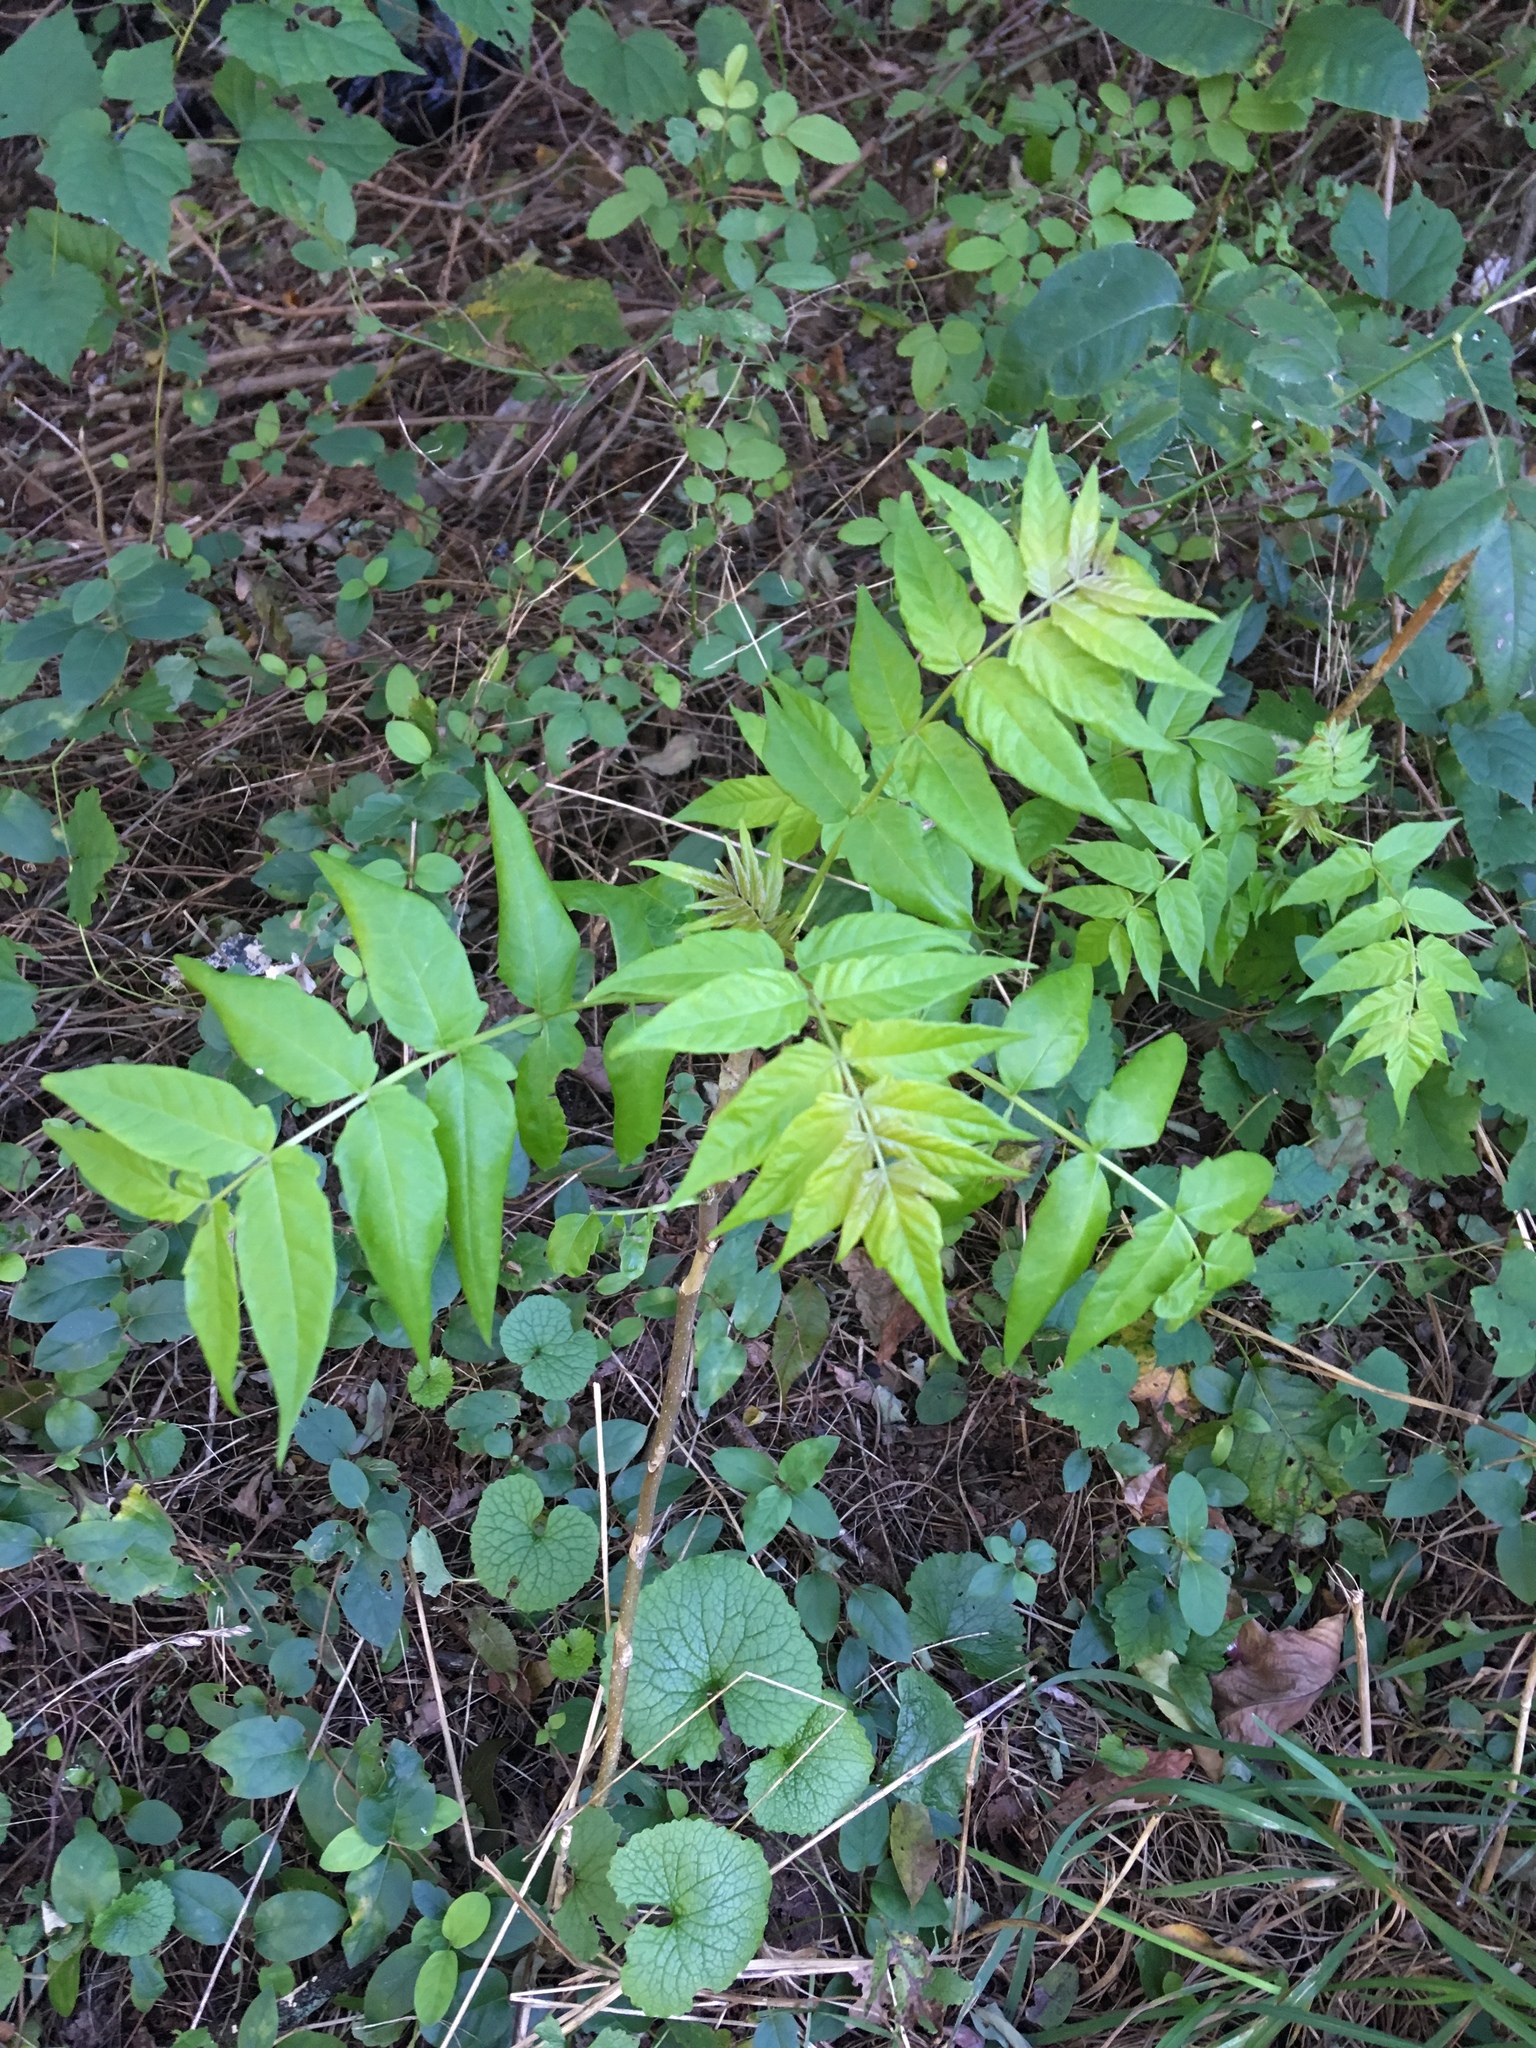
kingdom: Plantae
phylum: Tracheophyta
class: Magnoliopsida
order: Sapindales
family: Simaroubaceae
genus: Ailanthus
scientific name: Ailanthus altissima
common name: Tree-of-heaven
